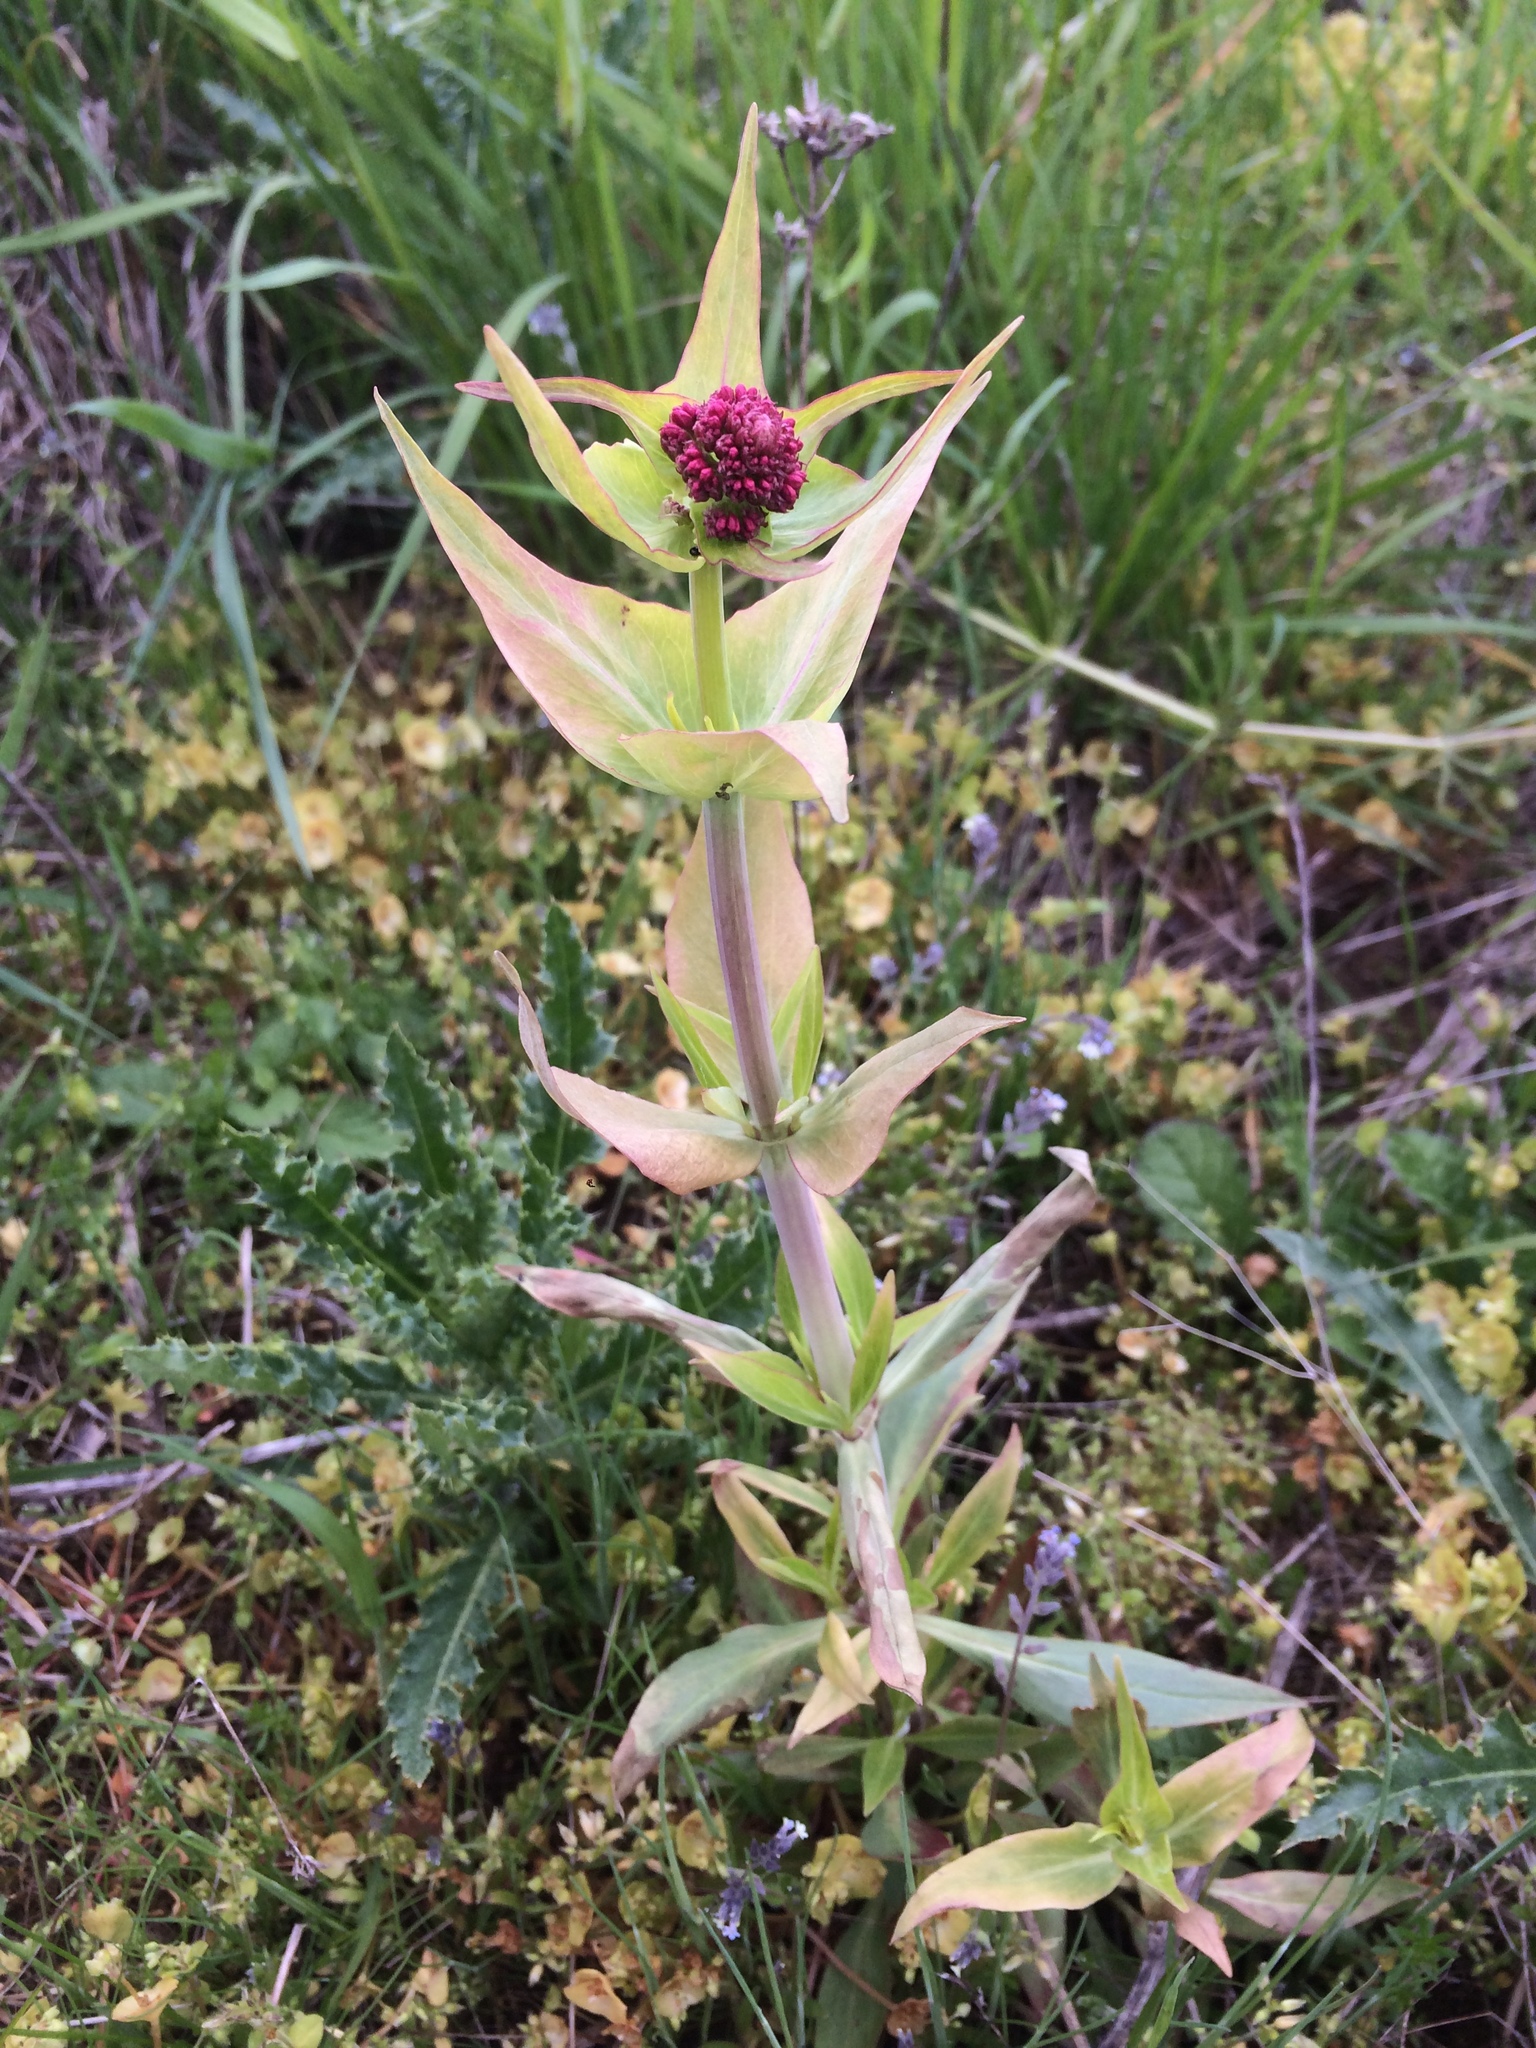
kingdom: Plantae
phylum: Tracheophyta
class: Magnoliopsida
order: Dipsacales
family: Caprifoliaceae
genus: Centranthus
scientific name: Centranthus ruber
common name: Red valerian
